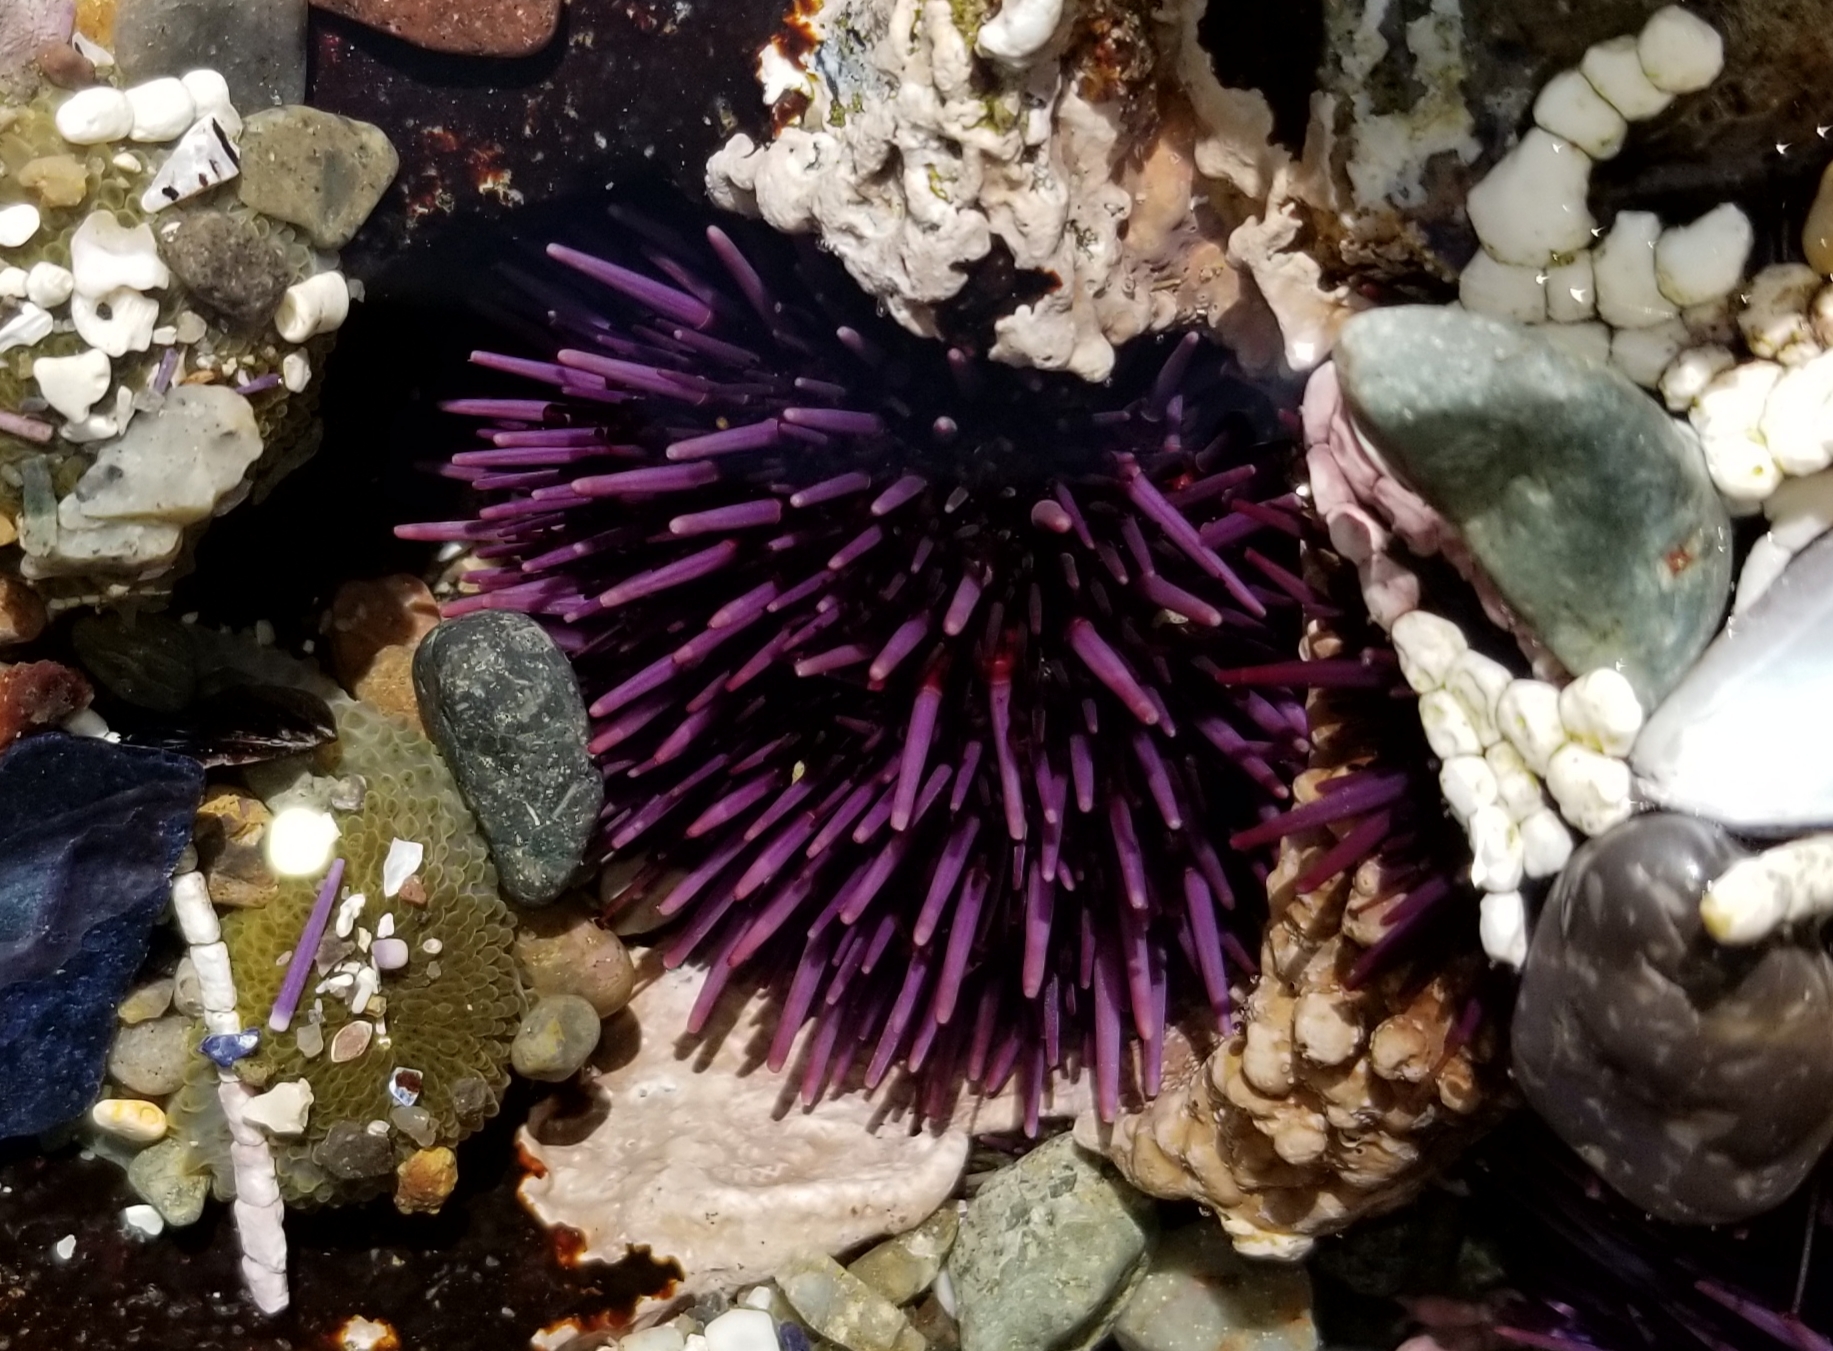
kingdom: Animalia
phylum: Echinodermata
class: Echinoidea
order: Camarodonta
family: Strongylocentrotidae
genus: Strongylocentrotus
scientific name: Strongylocentrotus purpuratus
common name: Purple sea urchin
